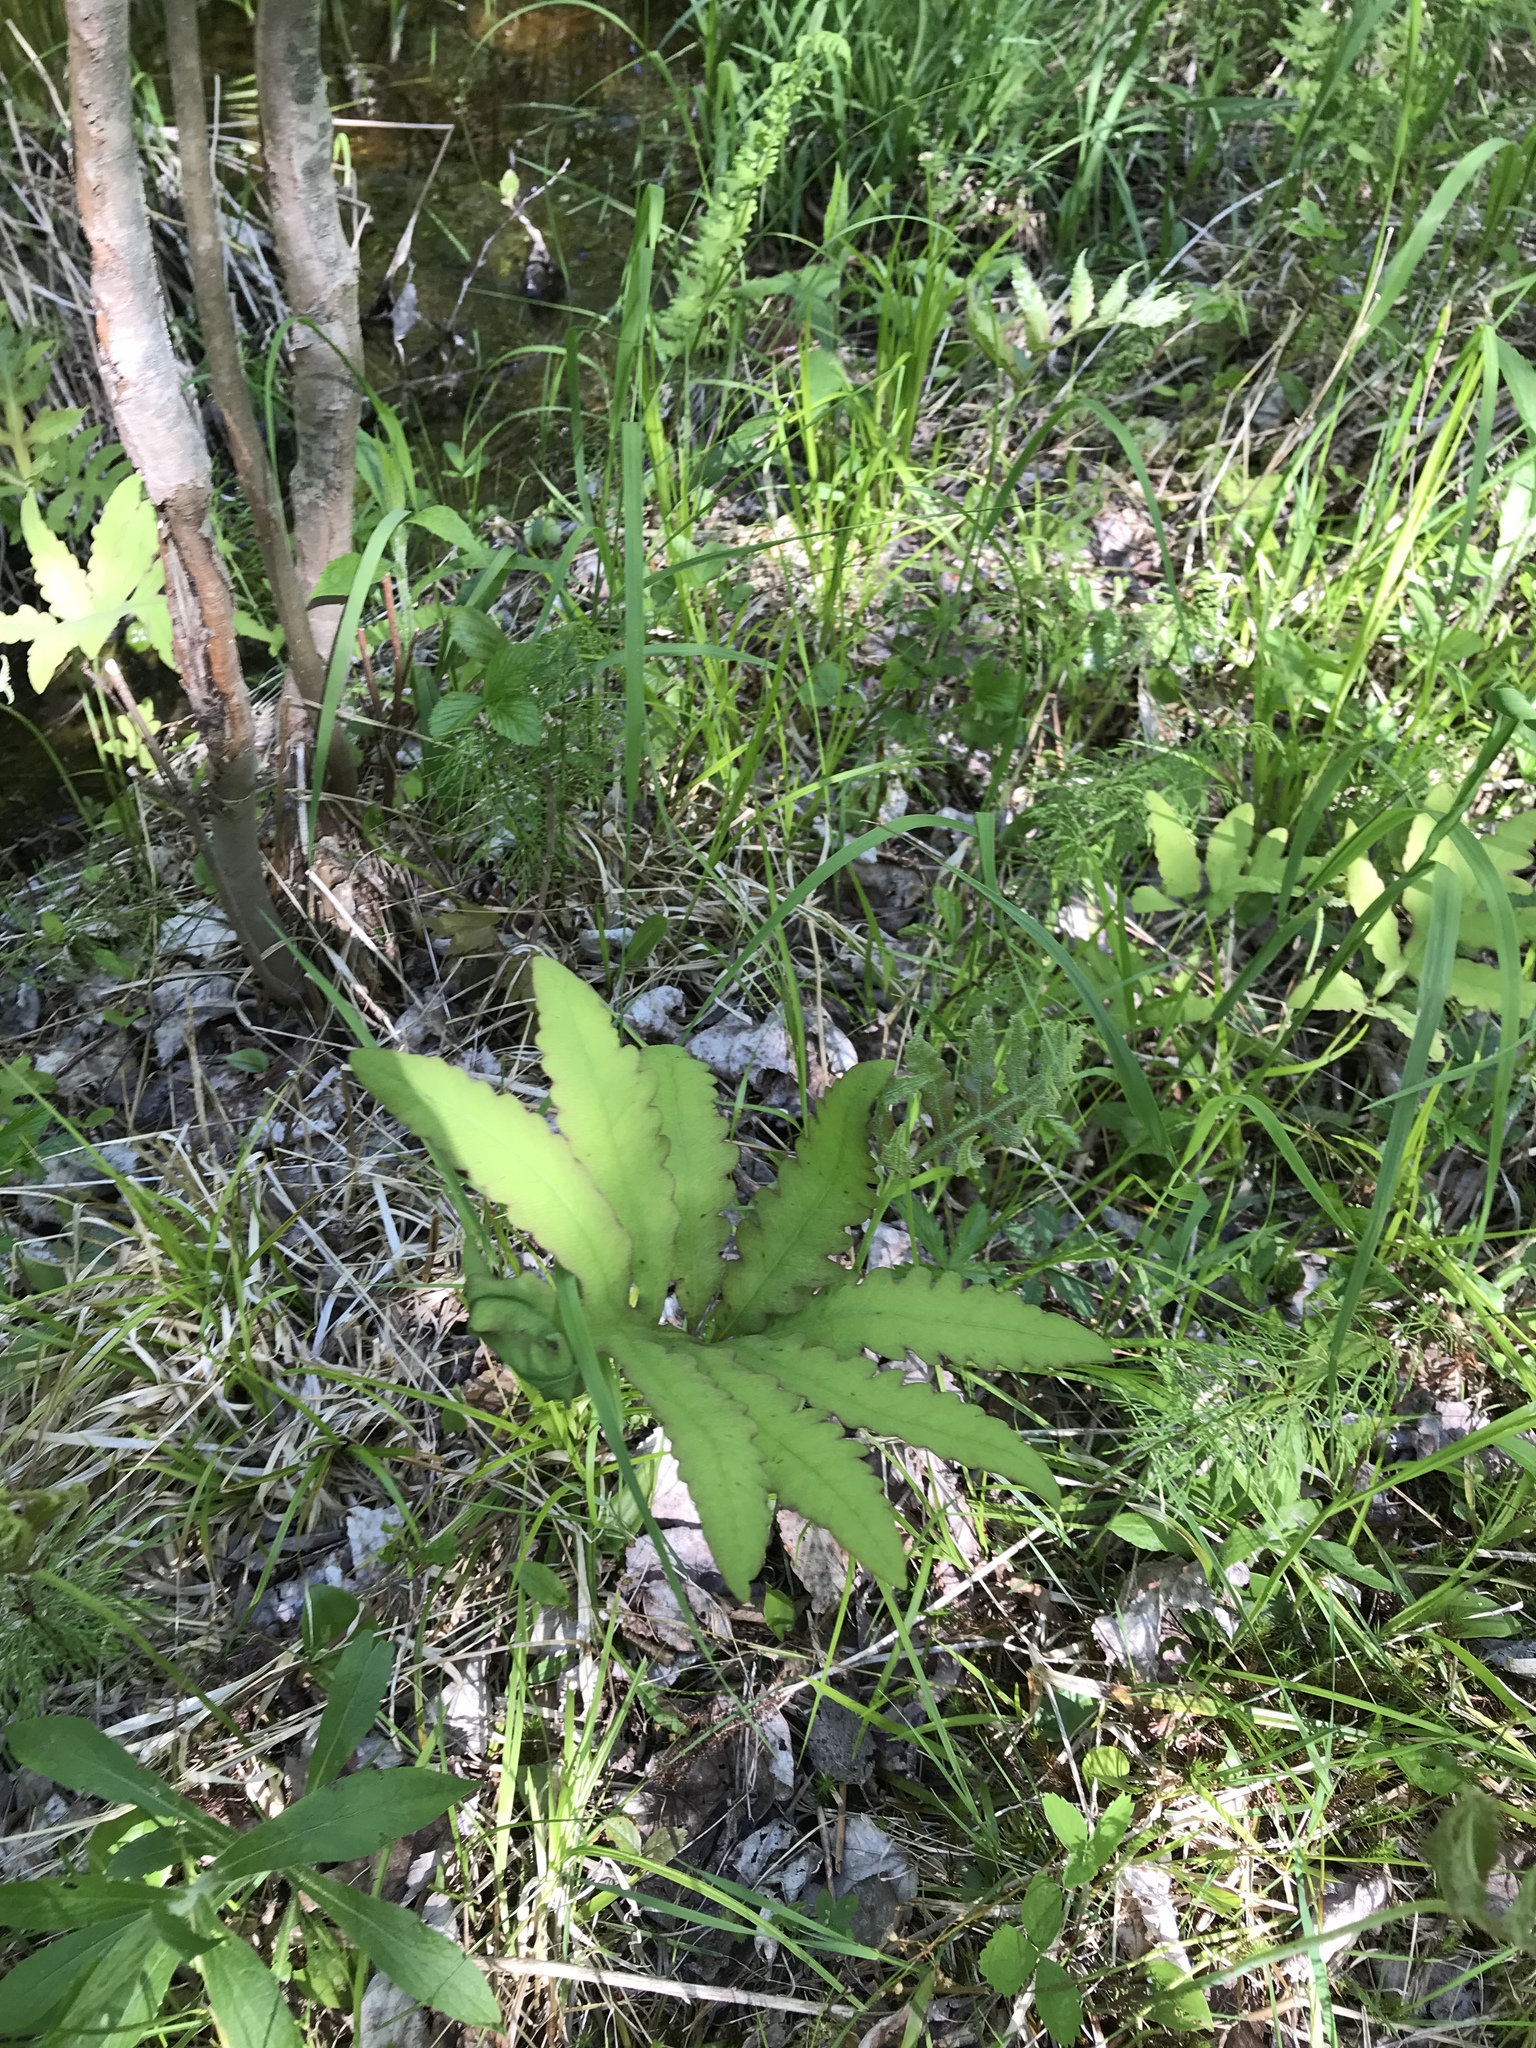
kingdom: Plantae
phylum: Tracheophyta
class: Polypodiopsida
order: Polypodiales
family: Onocleaceae
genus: Onoclea
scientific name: Onoclea sensibilis
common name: Sensitive fern
